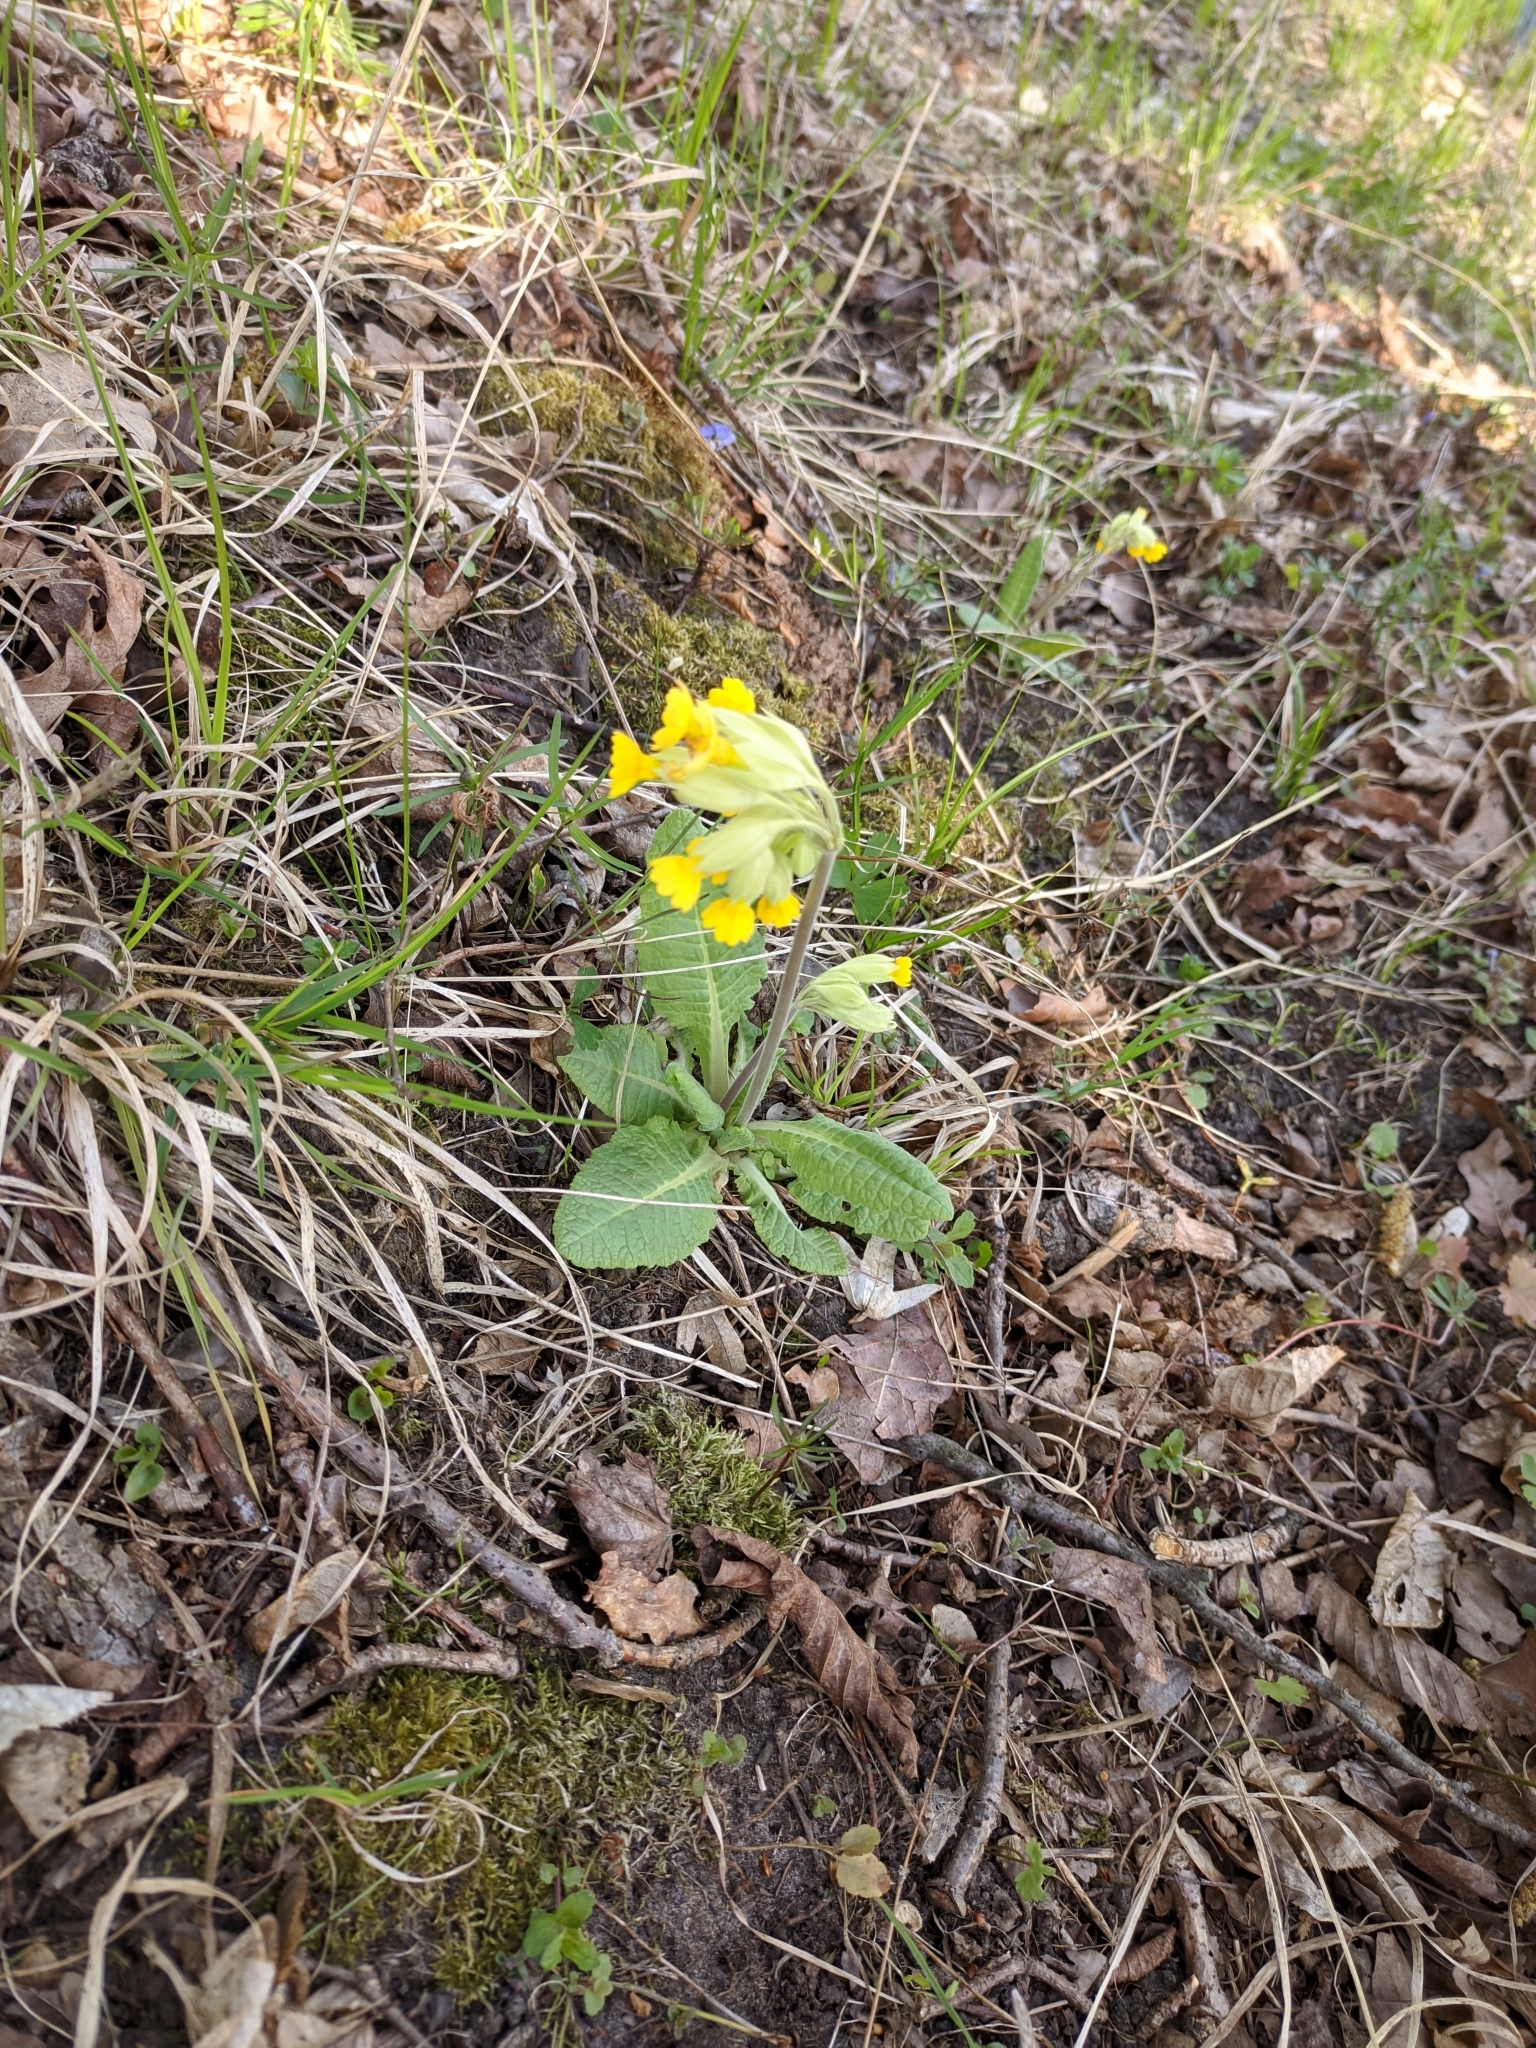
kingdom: Plantae
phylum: Tracheophyta
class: Magnoliopsida
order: Ericales
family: Primulaceae
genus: Primula
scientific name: Primula veris
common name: Cowslip
